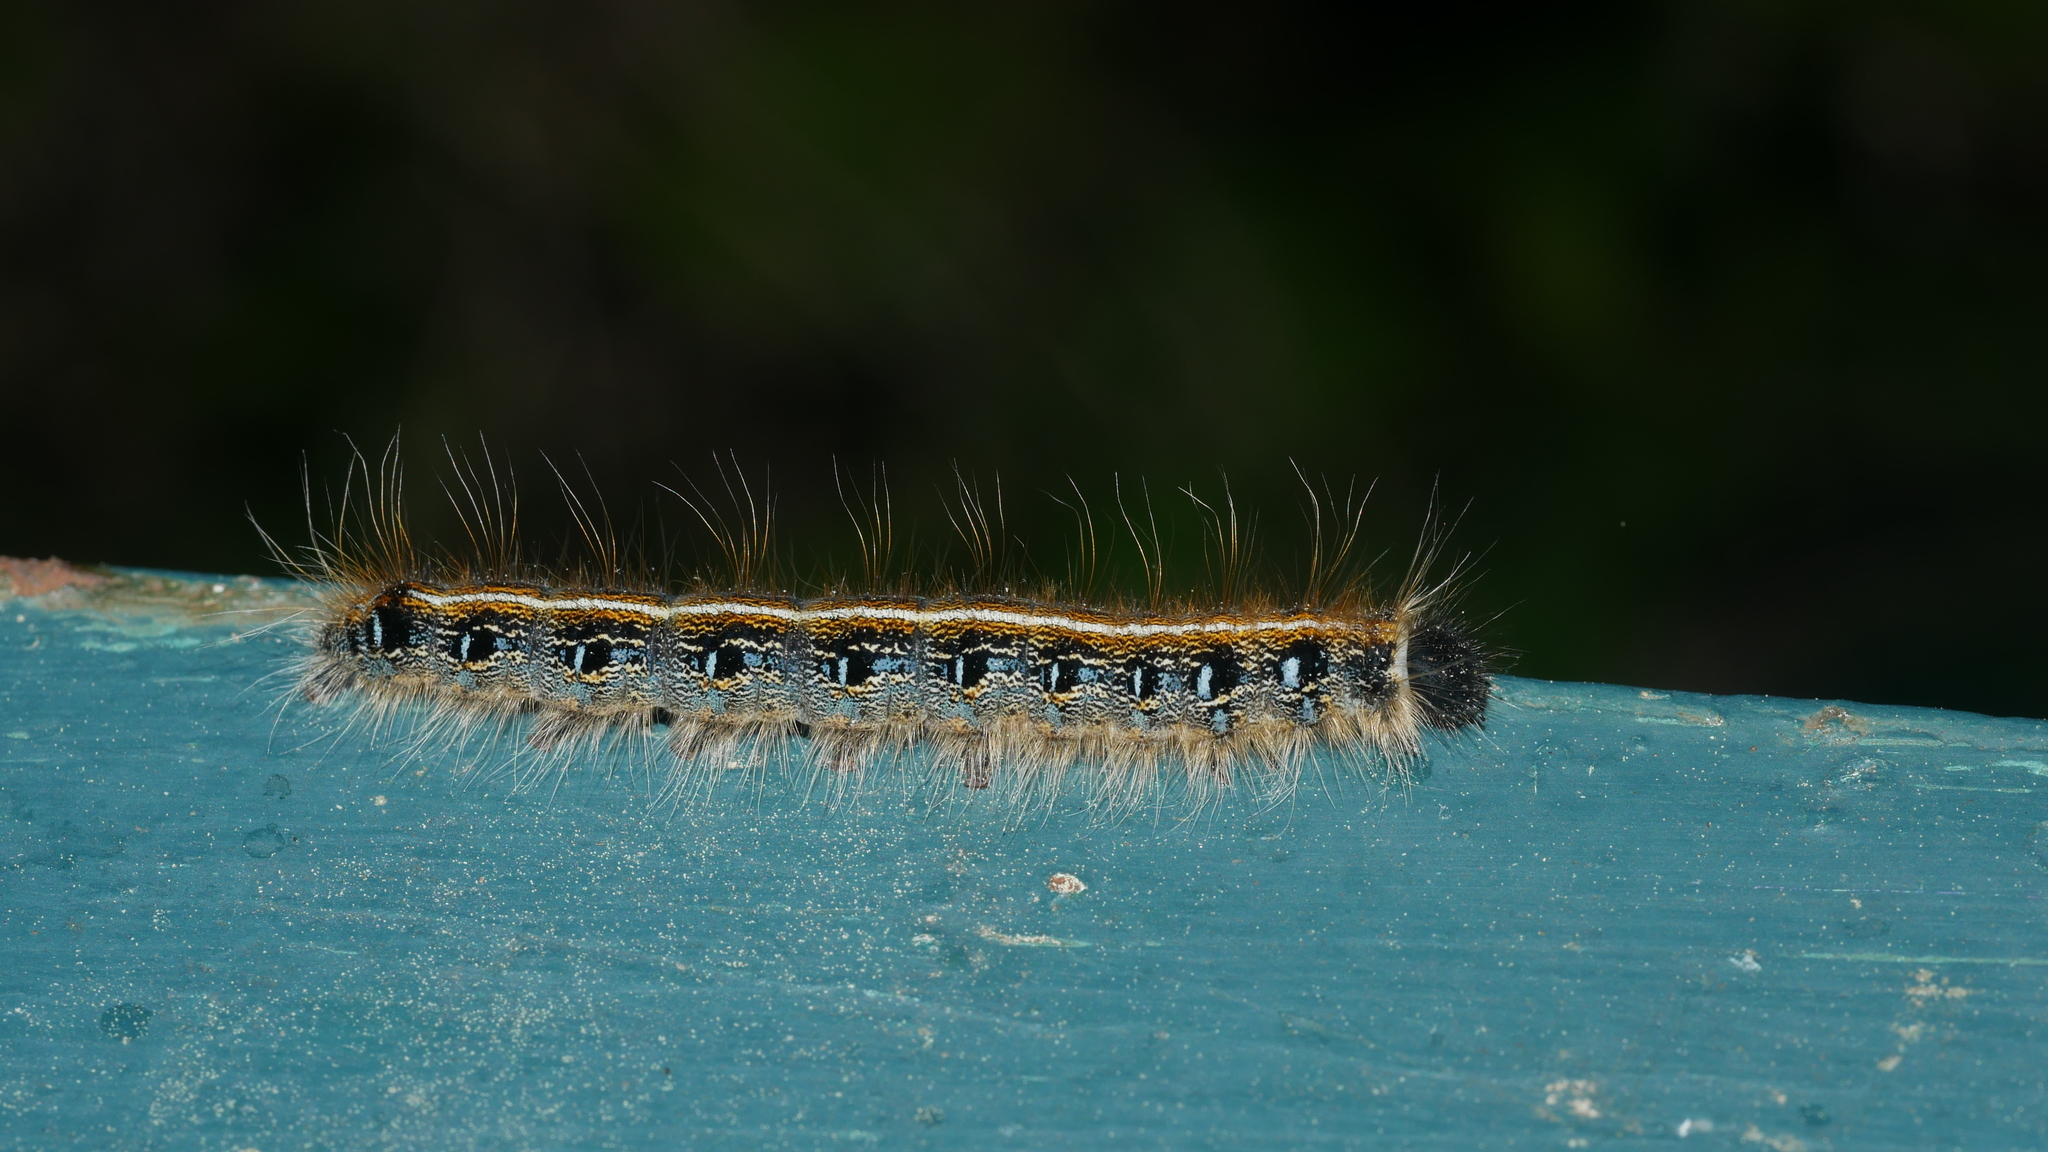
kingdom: Animalia
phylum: Arthropoda
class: Insecta
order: Lepidoptera
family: Lasiocampidae
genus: Malacosoma
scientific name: Malacosoma americana
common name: Eastern tent caterpillar moth
